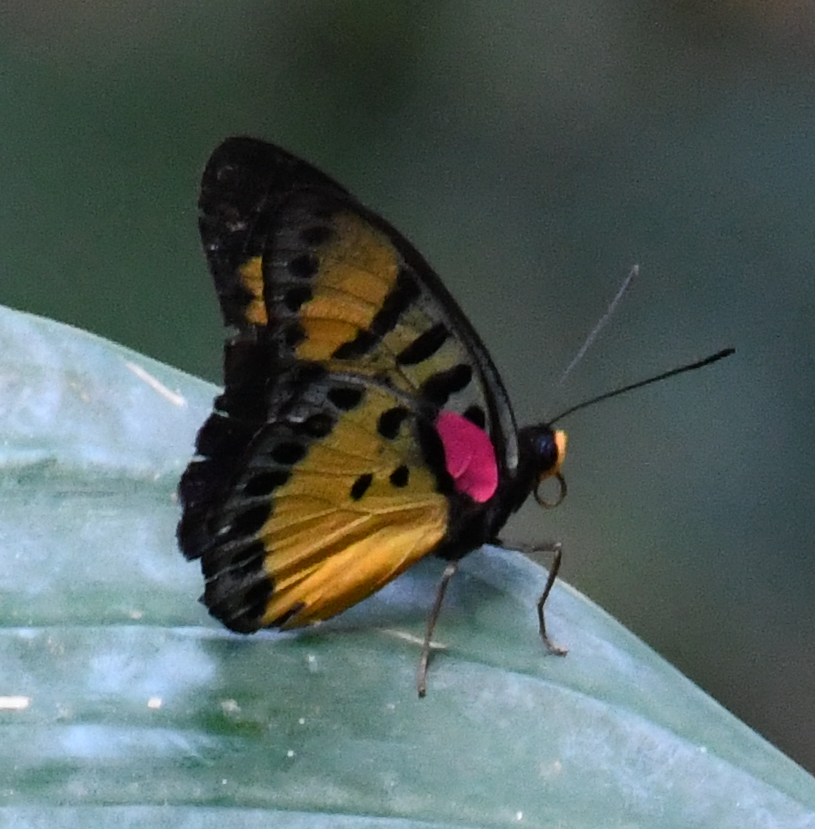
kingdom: Animalia
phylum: Arthropoda
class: Insecta
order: Lepidoptera
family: Nymphalidae
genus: Euphaedra
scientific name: Euphaedra cyparissa
